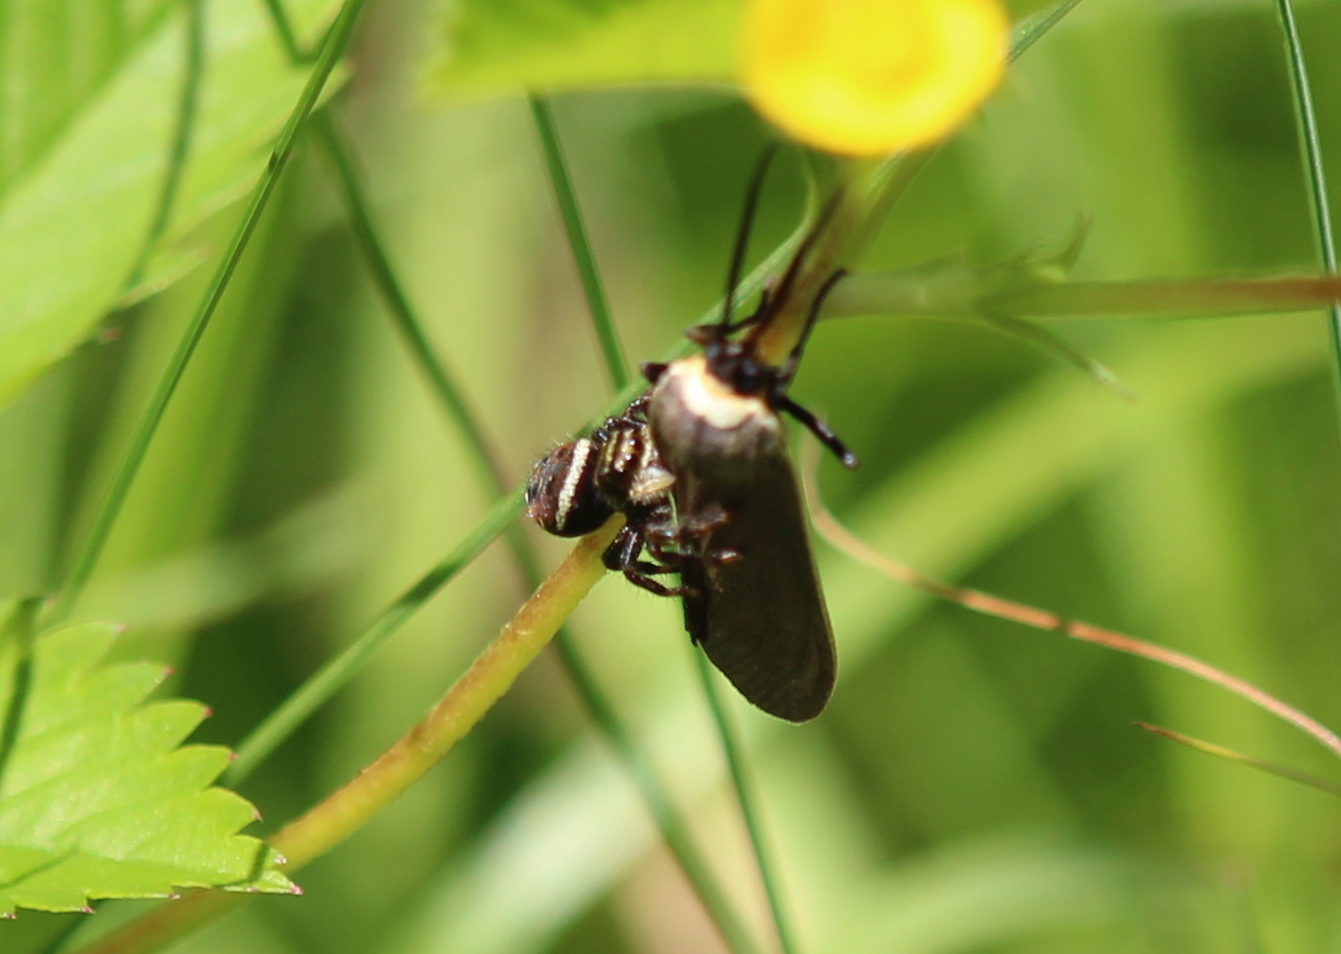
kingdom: Animalia
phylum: Arthropoda
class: Arachnida
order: Araneae
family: Salticidae
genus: Phidippus
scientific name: Phidippus clarus
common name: Brilliant jumping spider
